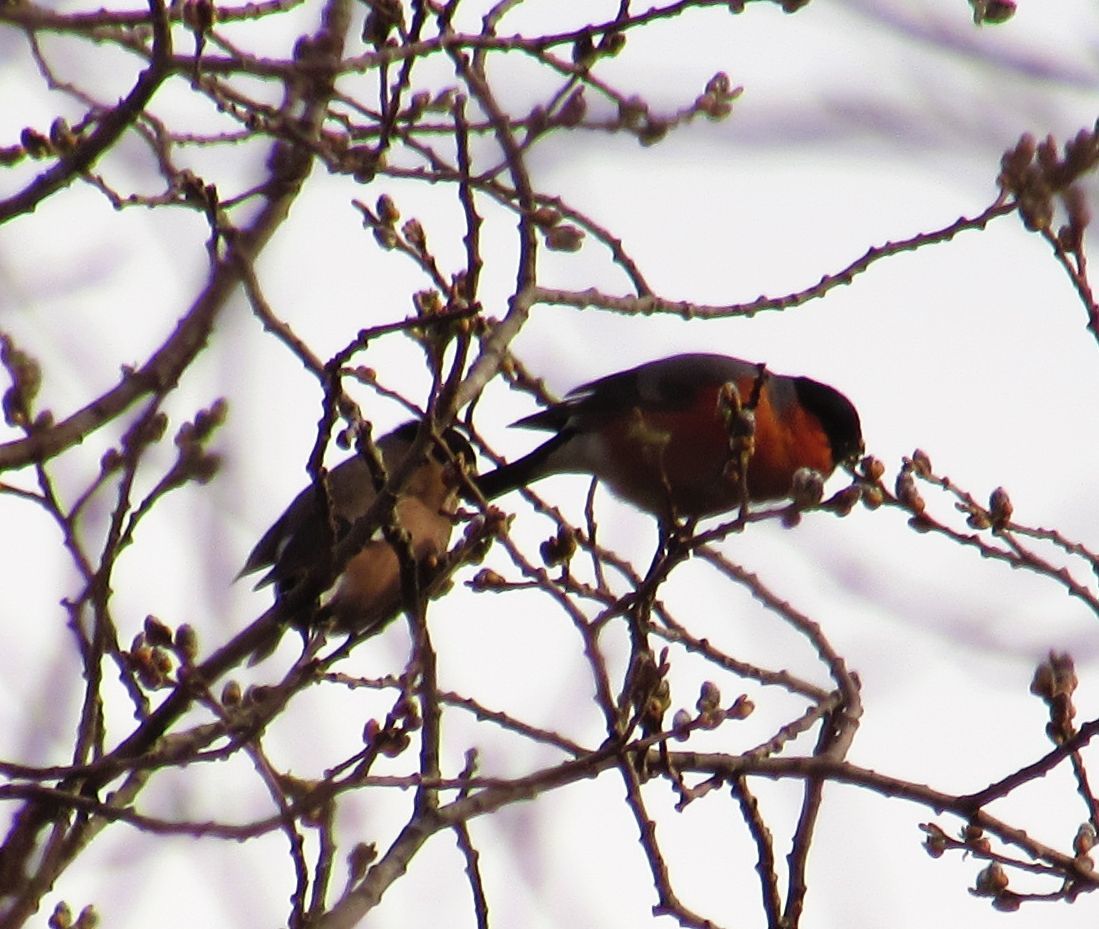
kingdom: Animalia
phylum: Chordata
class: Aves
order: Passeriformes
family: Fringillidae
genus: Pyrrhula
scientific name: Pyrrhula pyrrhula
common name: Eurasian bullfinch
